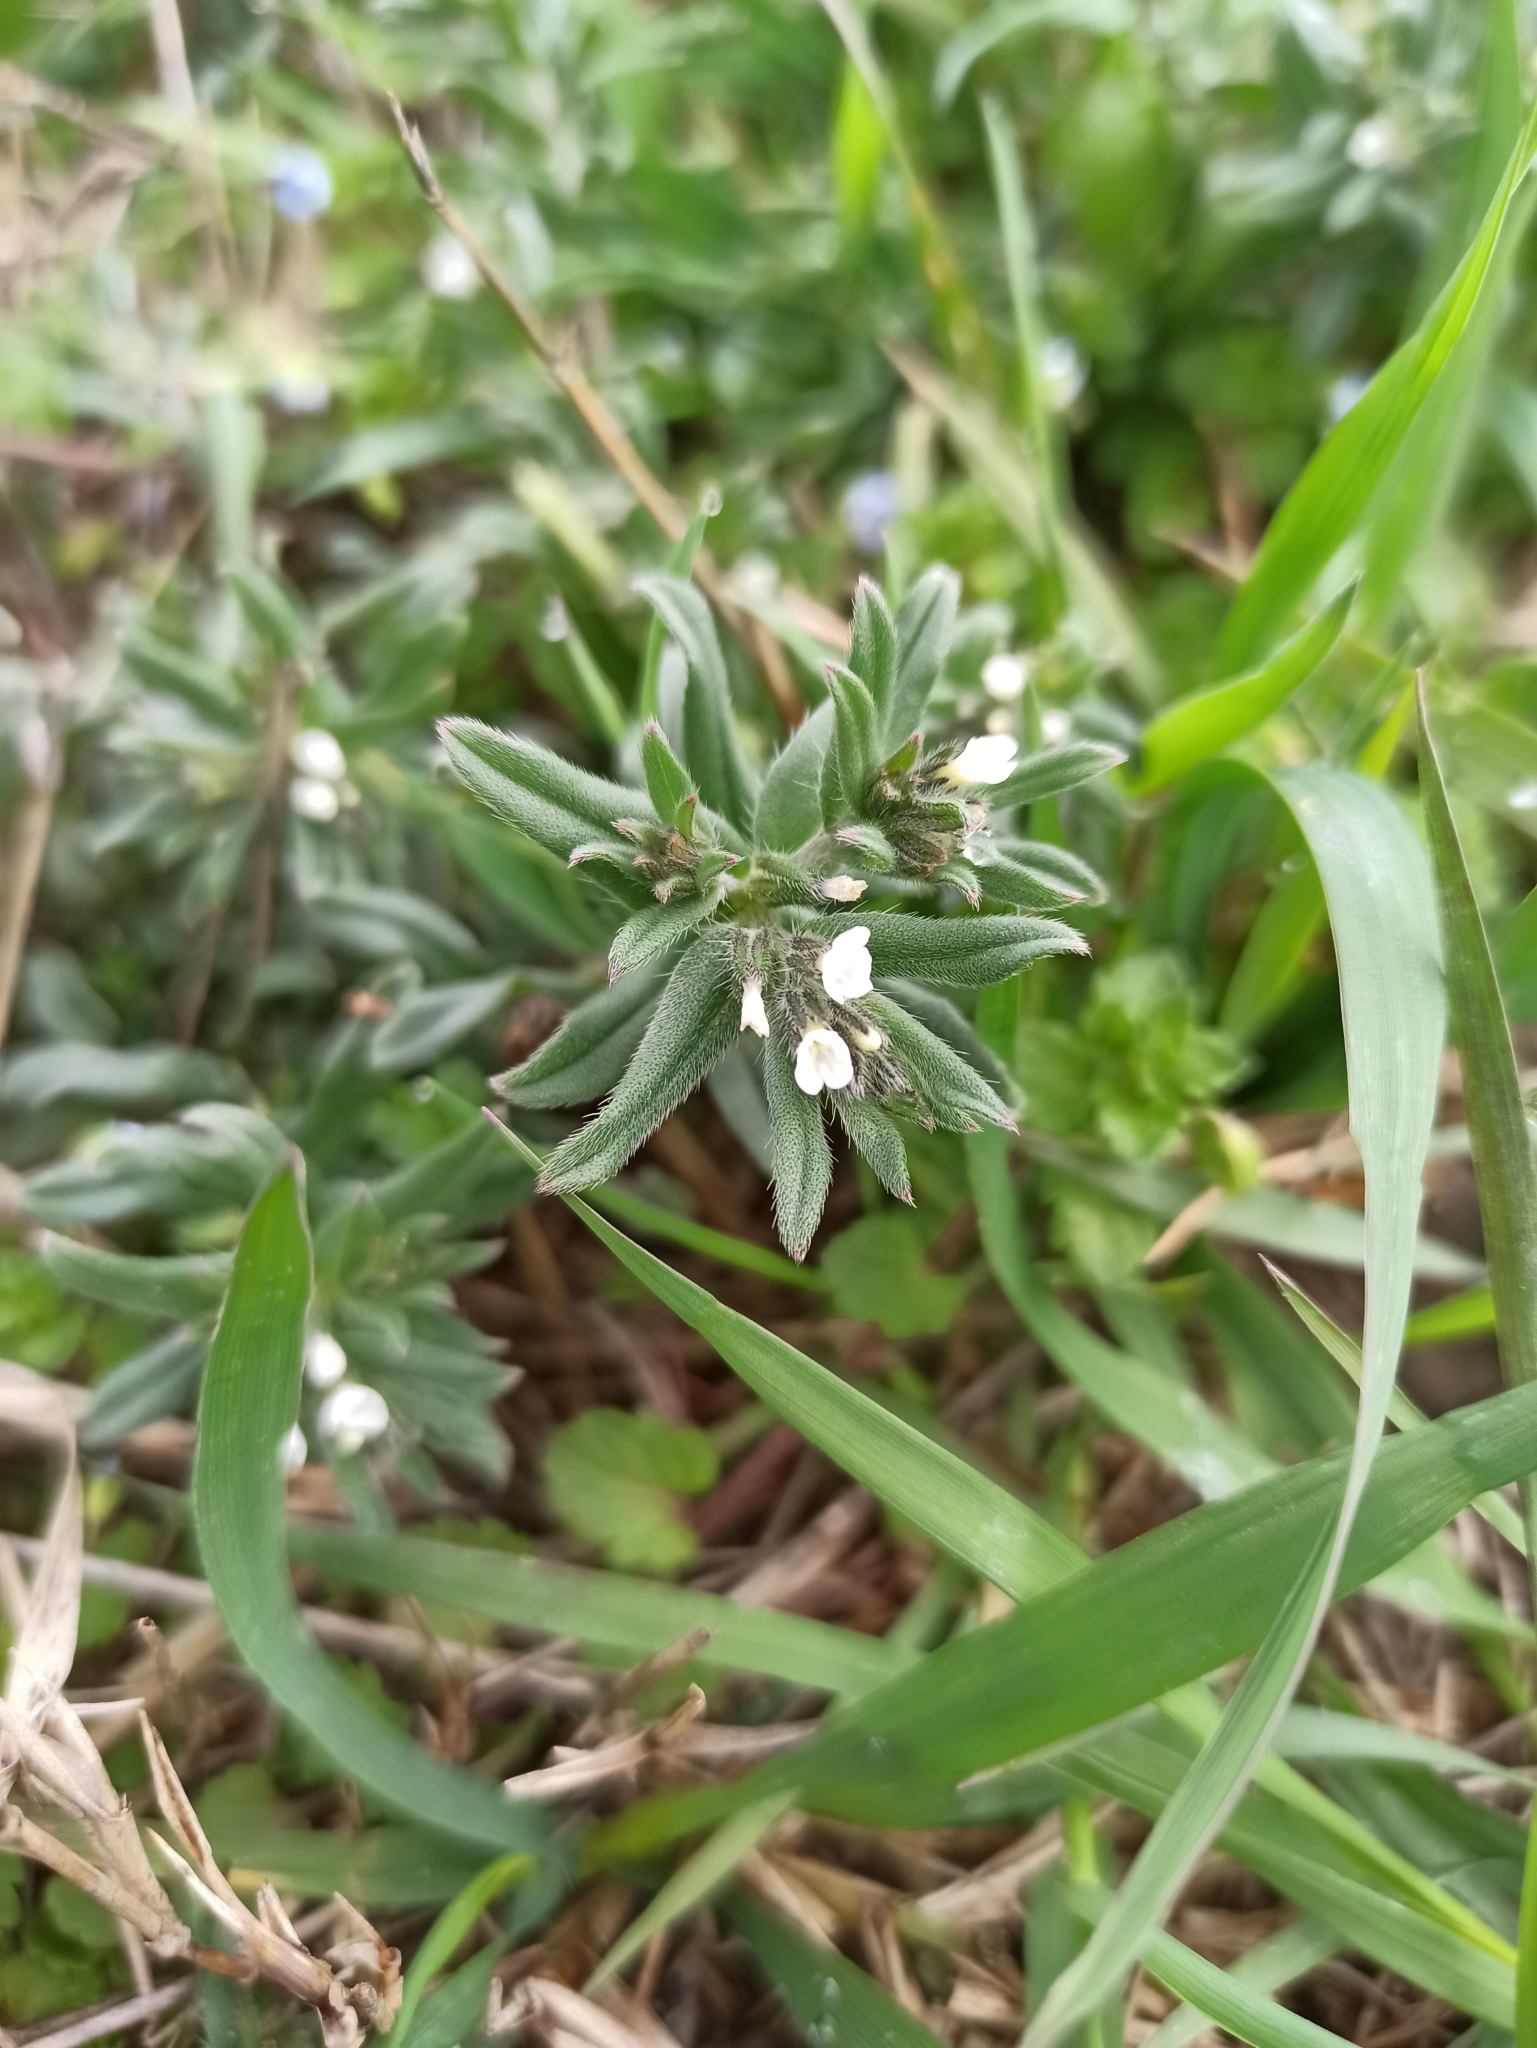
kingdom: Plantae
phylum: Tracheophyta
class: Magnoliopsida
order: Boraginales
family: Boraginaceae
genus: Buglossoides
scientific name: Buglossoides arvensis
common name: Corn gromwell
